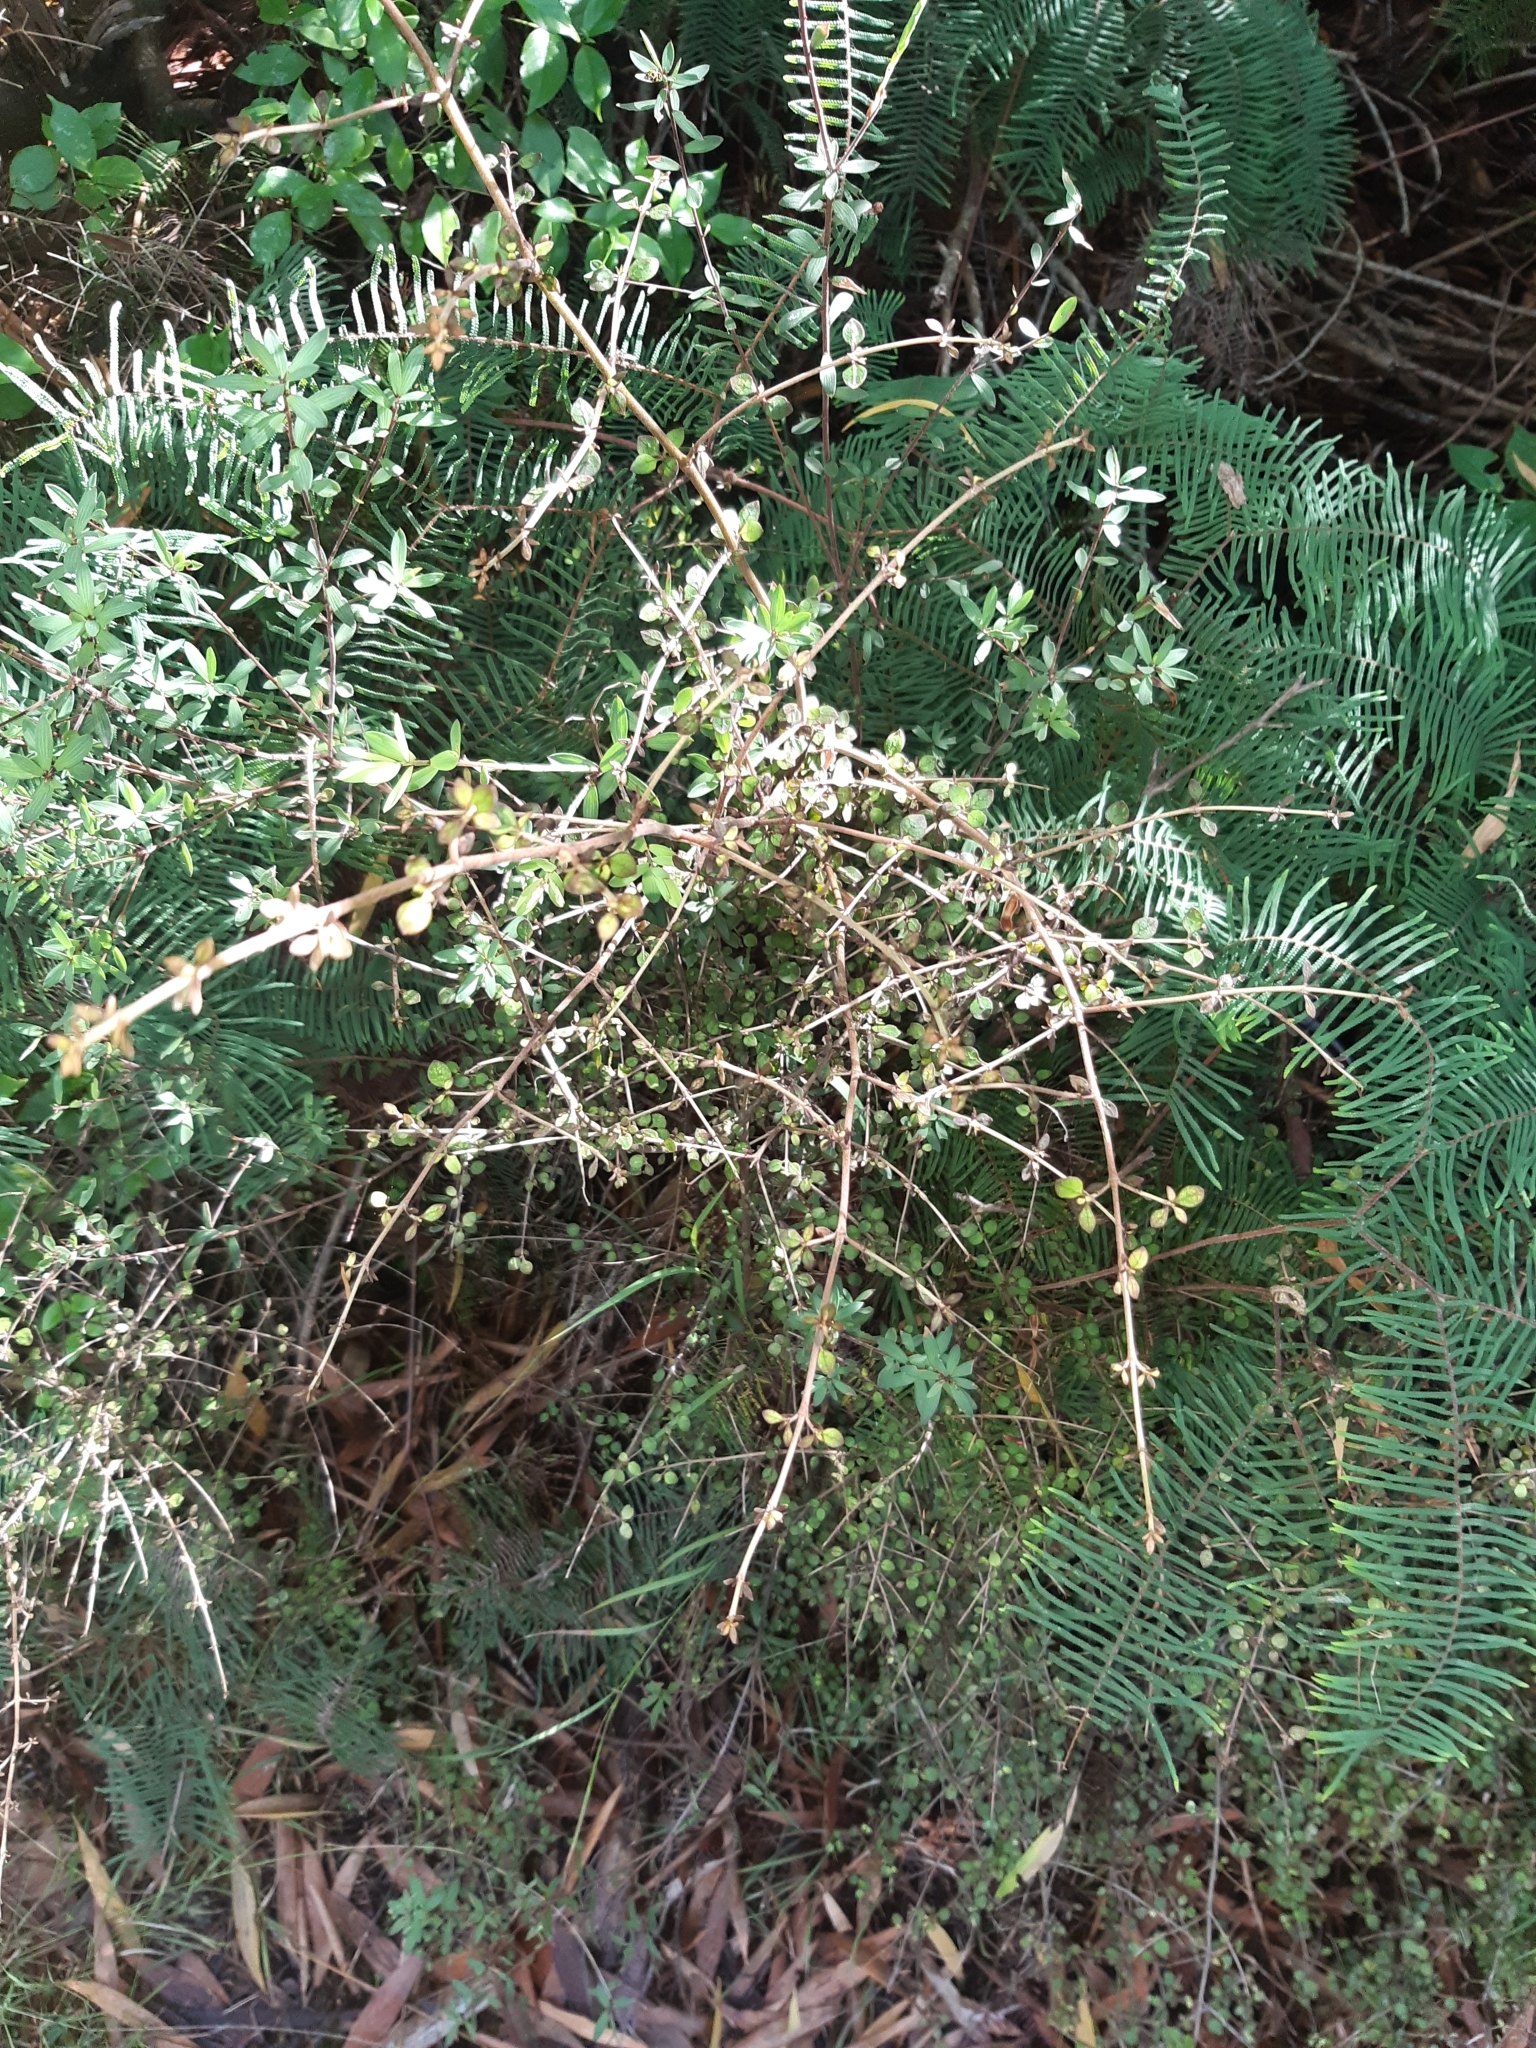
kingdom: Plantae
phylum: Tracheophyta
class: Magnoliopsida
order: Gentianales
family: Rubiaceae
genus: Coprosma
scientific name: Coprosma rhamnoides
